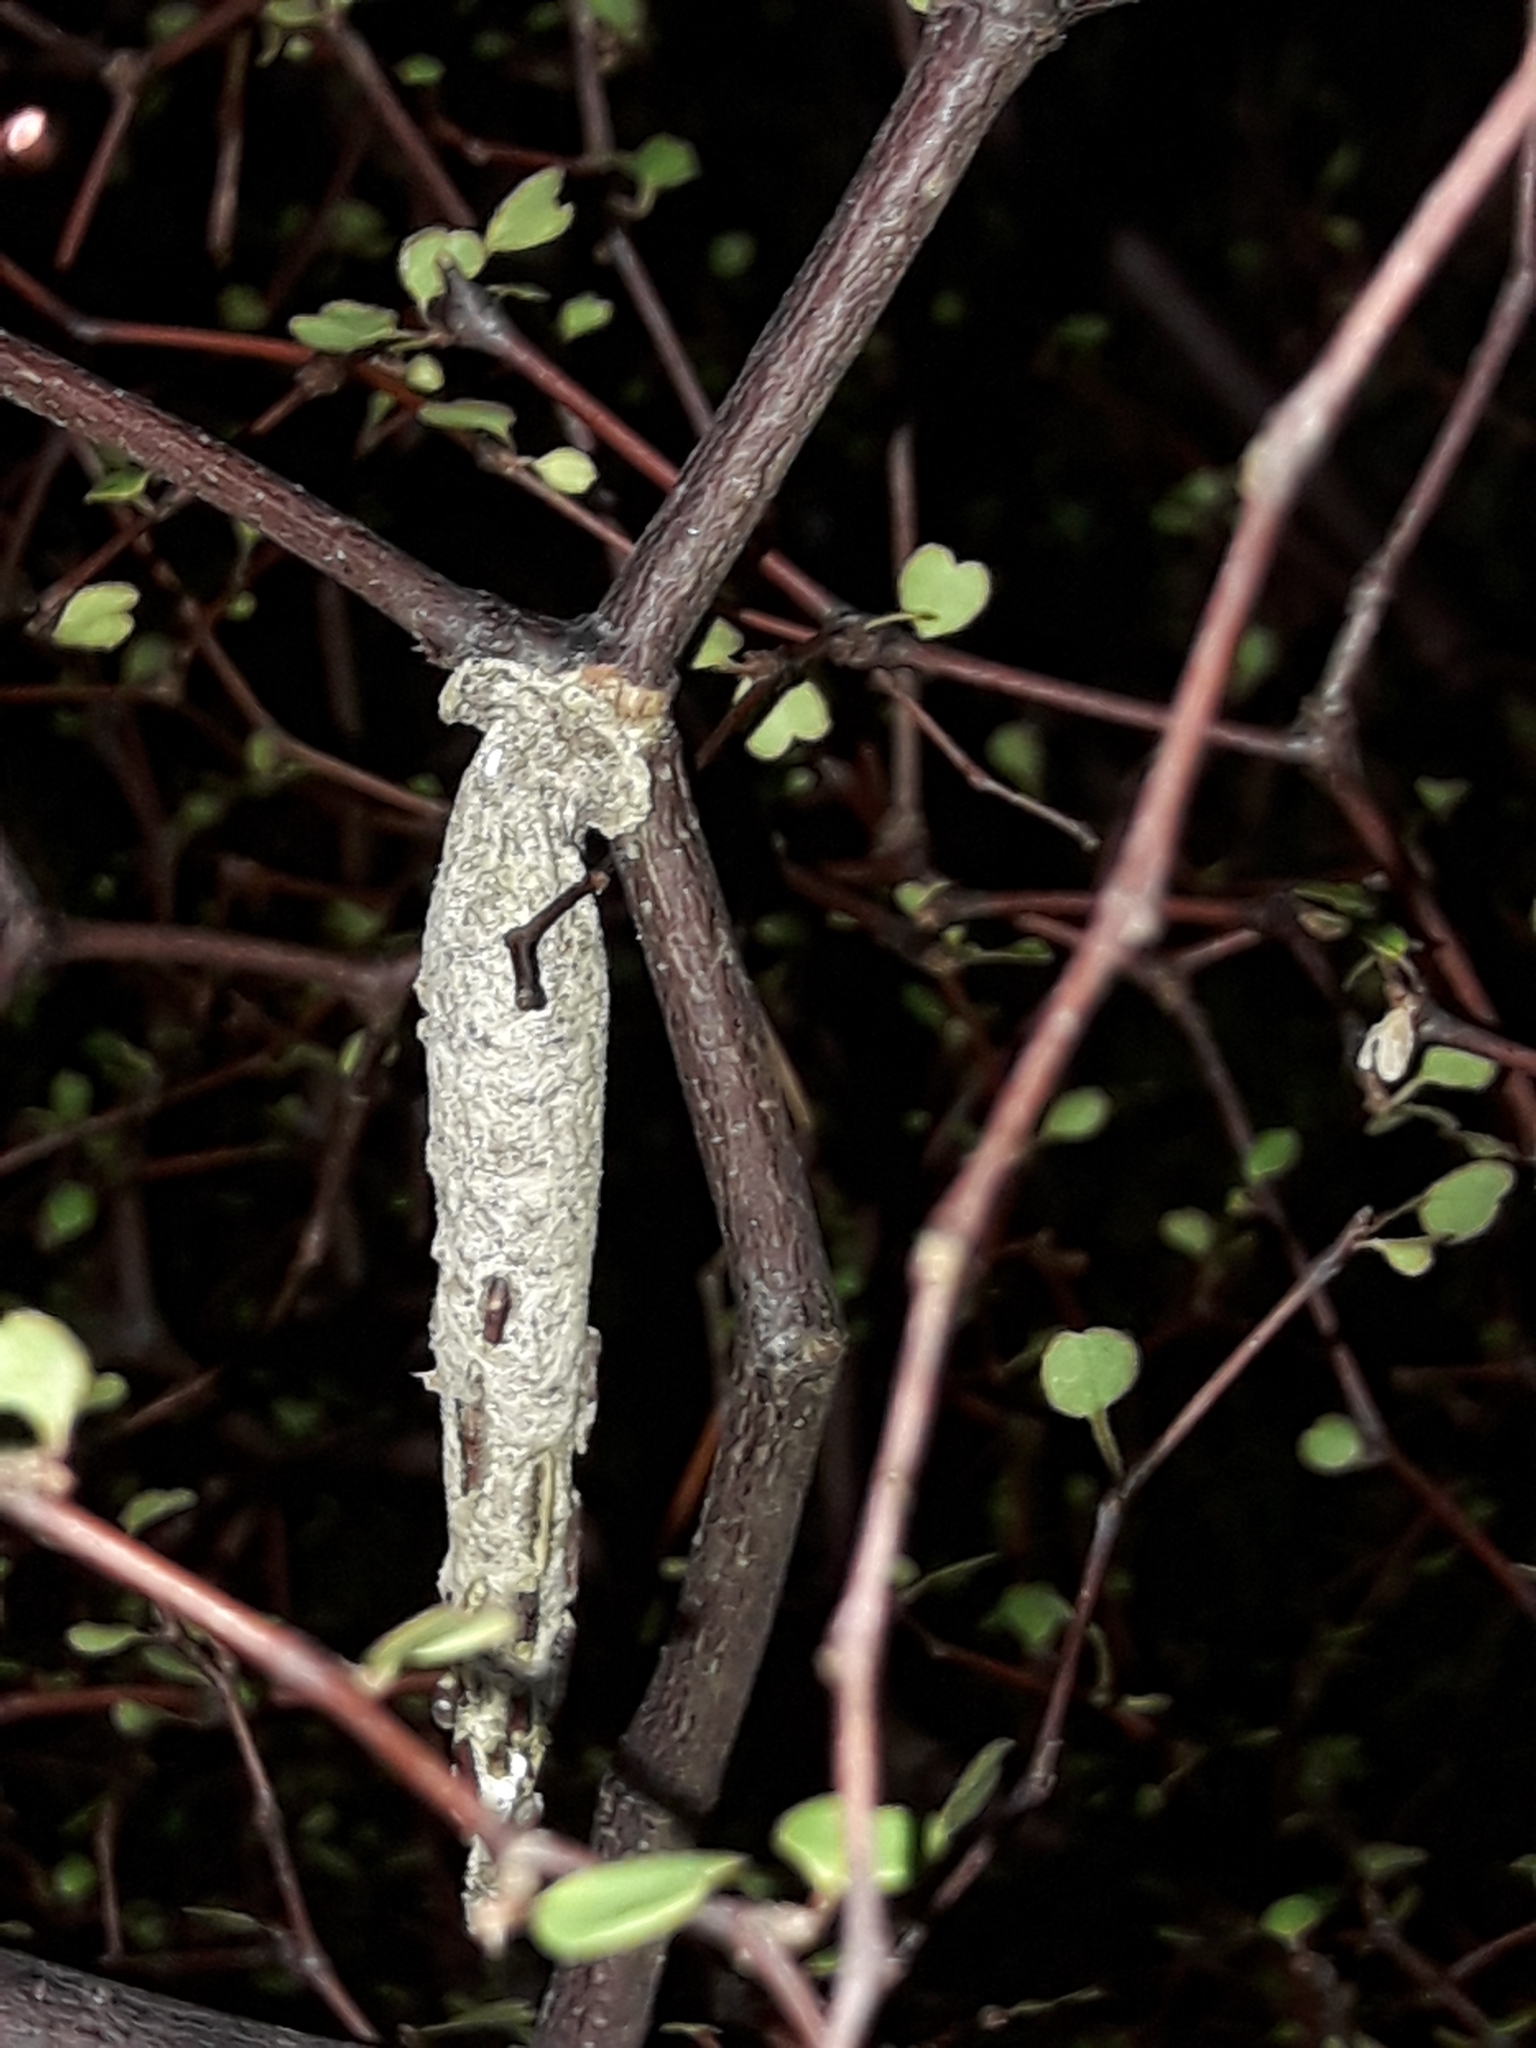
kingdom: Animalia
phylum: Arthropoda
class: Insecta
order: Lepidoptera
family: Psychidae
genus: Liothula
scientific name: Liothula omnivora
